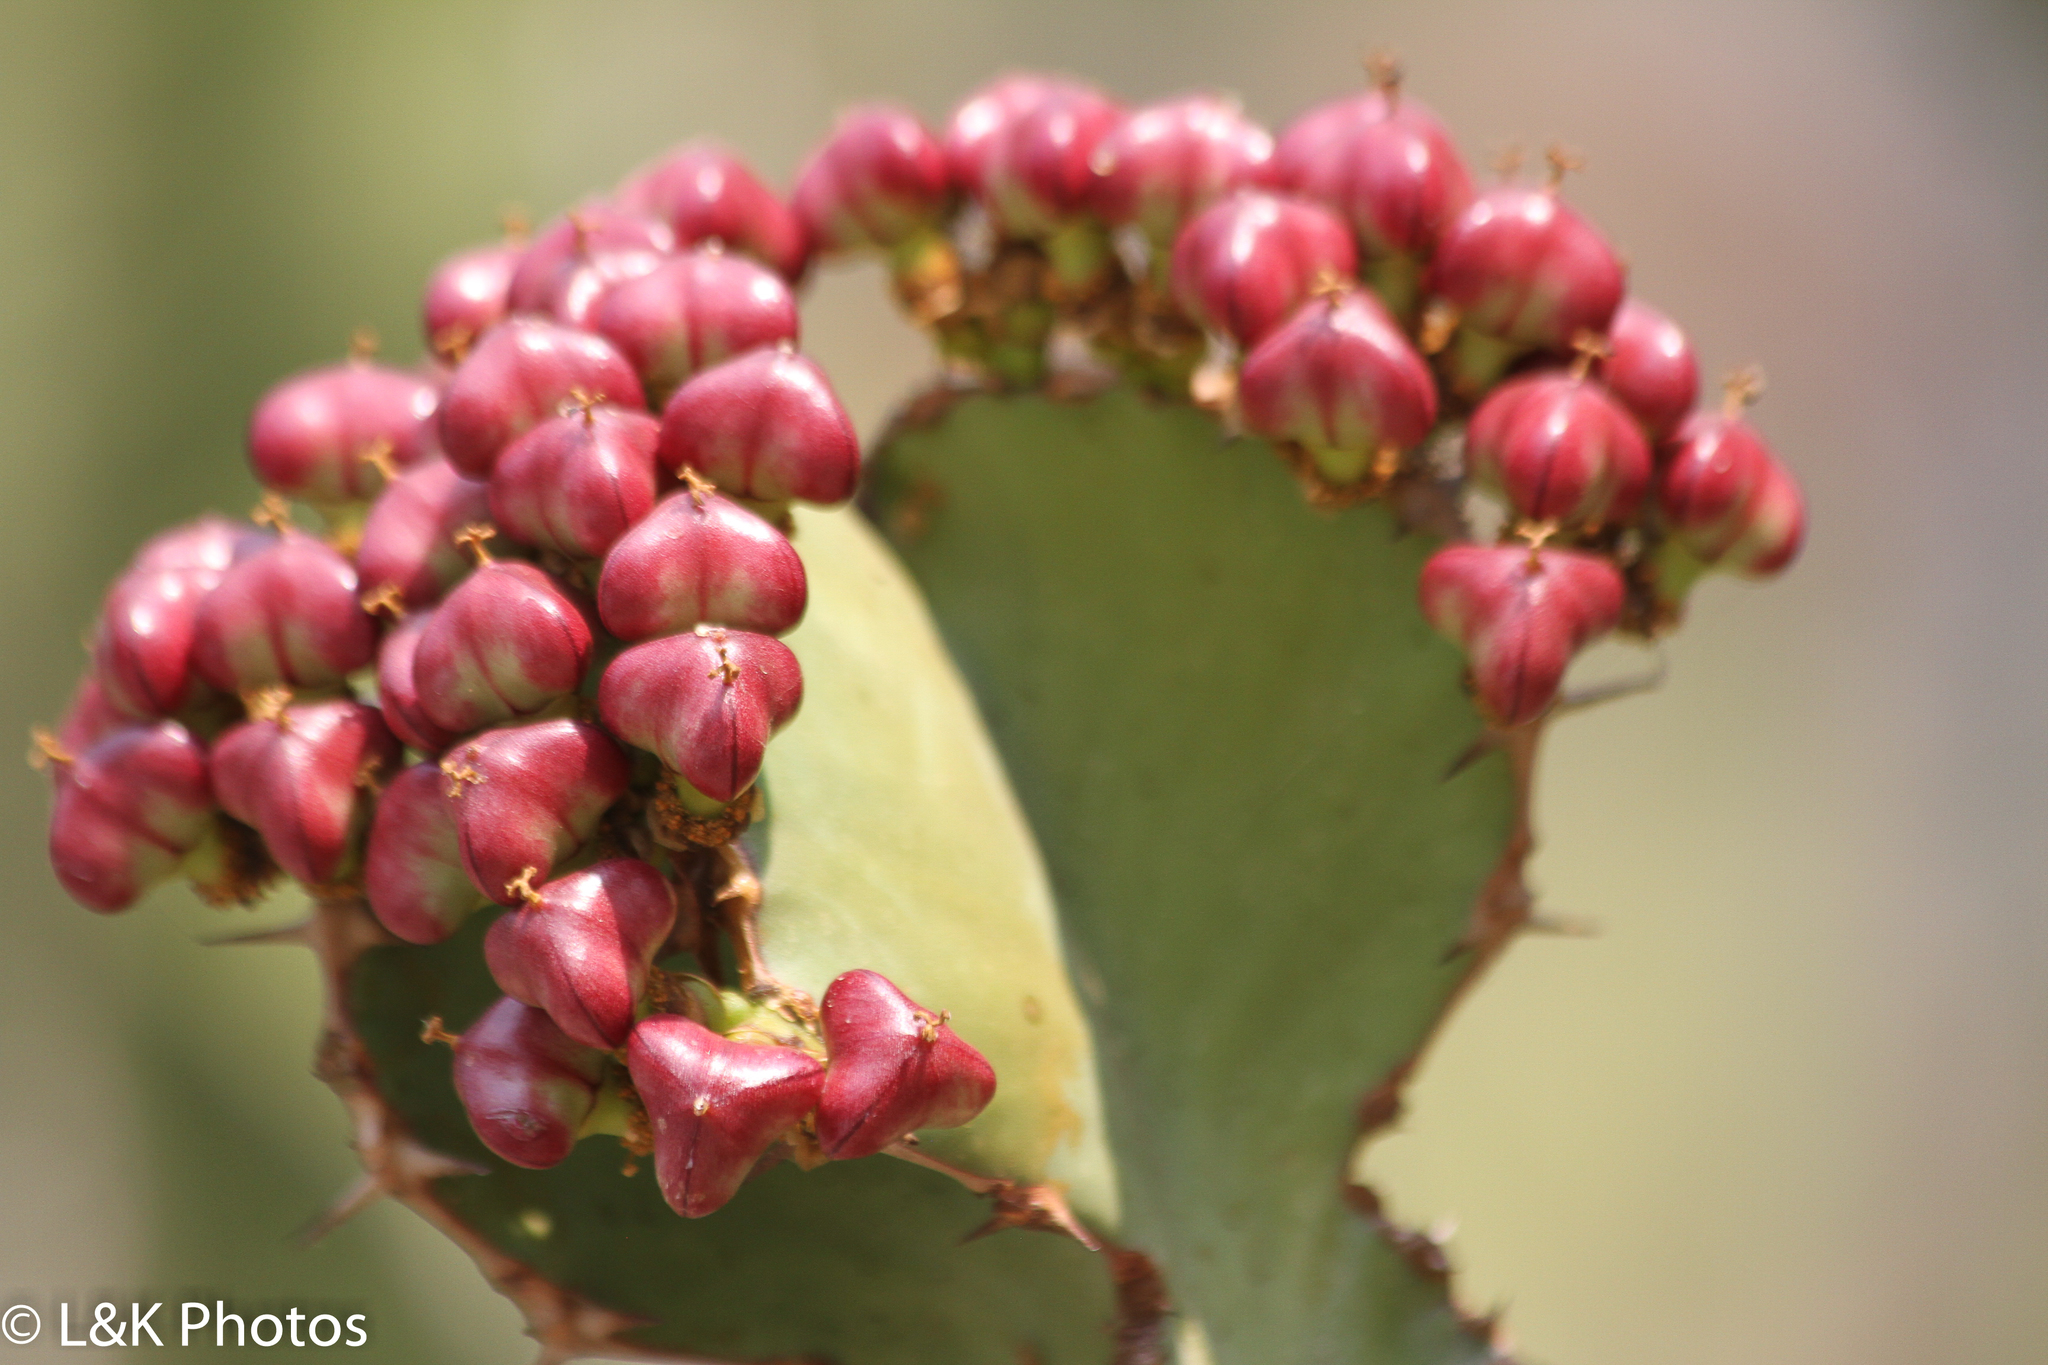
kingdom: Plantae
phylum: Tracheophyta
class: Magnoliopsida
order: Malpighiales
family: Euphorbiaceae
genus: Euphorbia
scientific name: Euphorbia cooperi
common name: Candelabra tree
